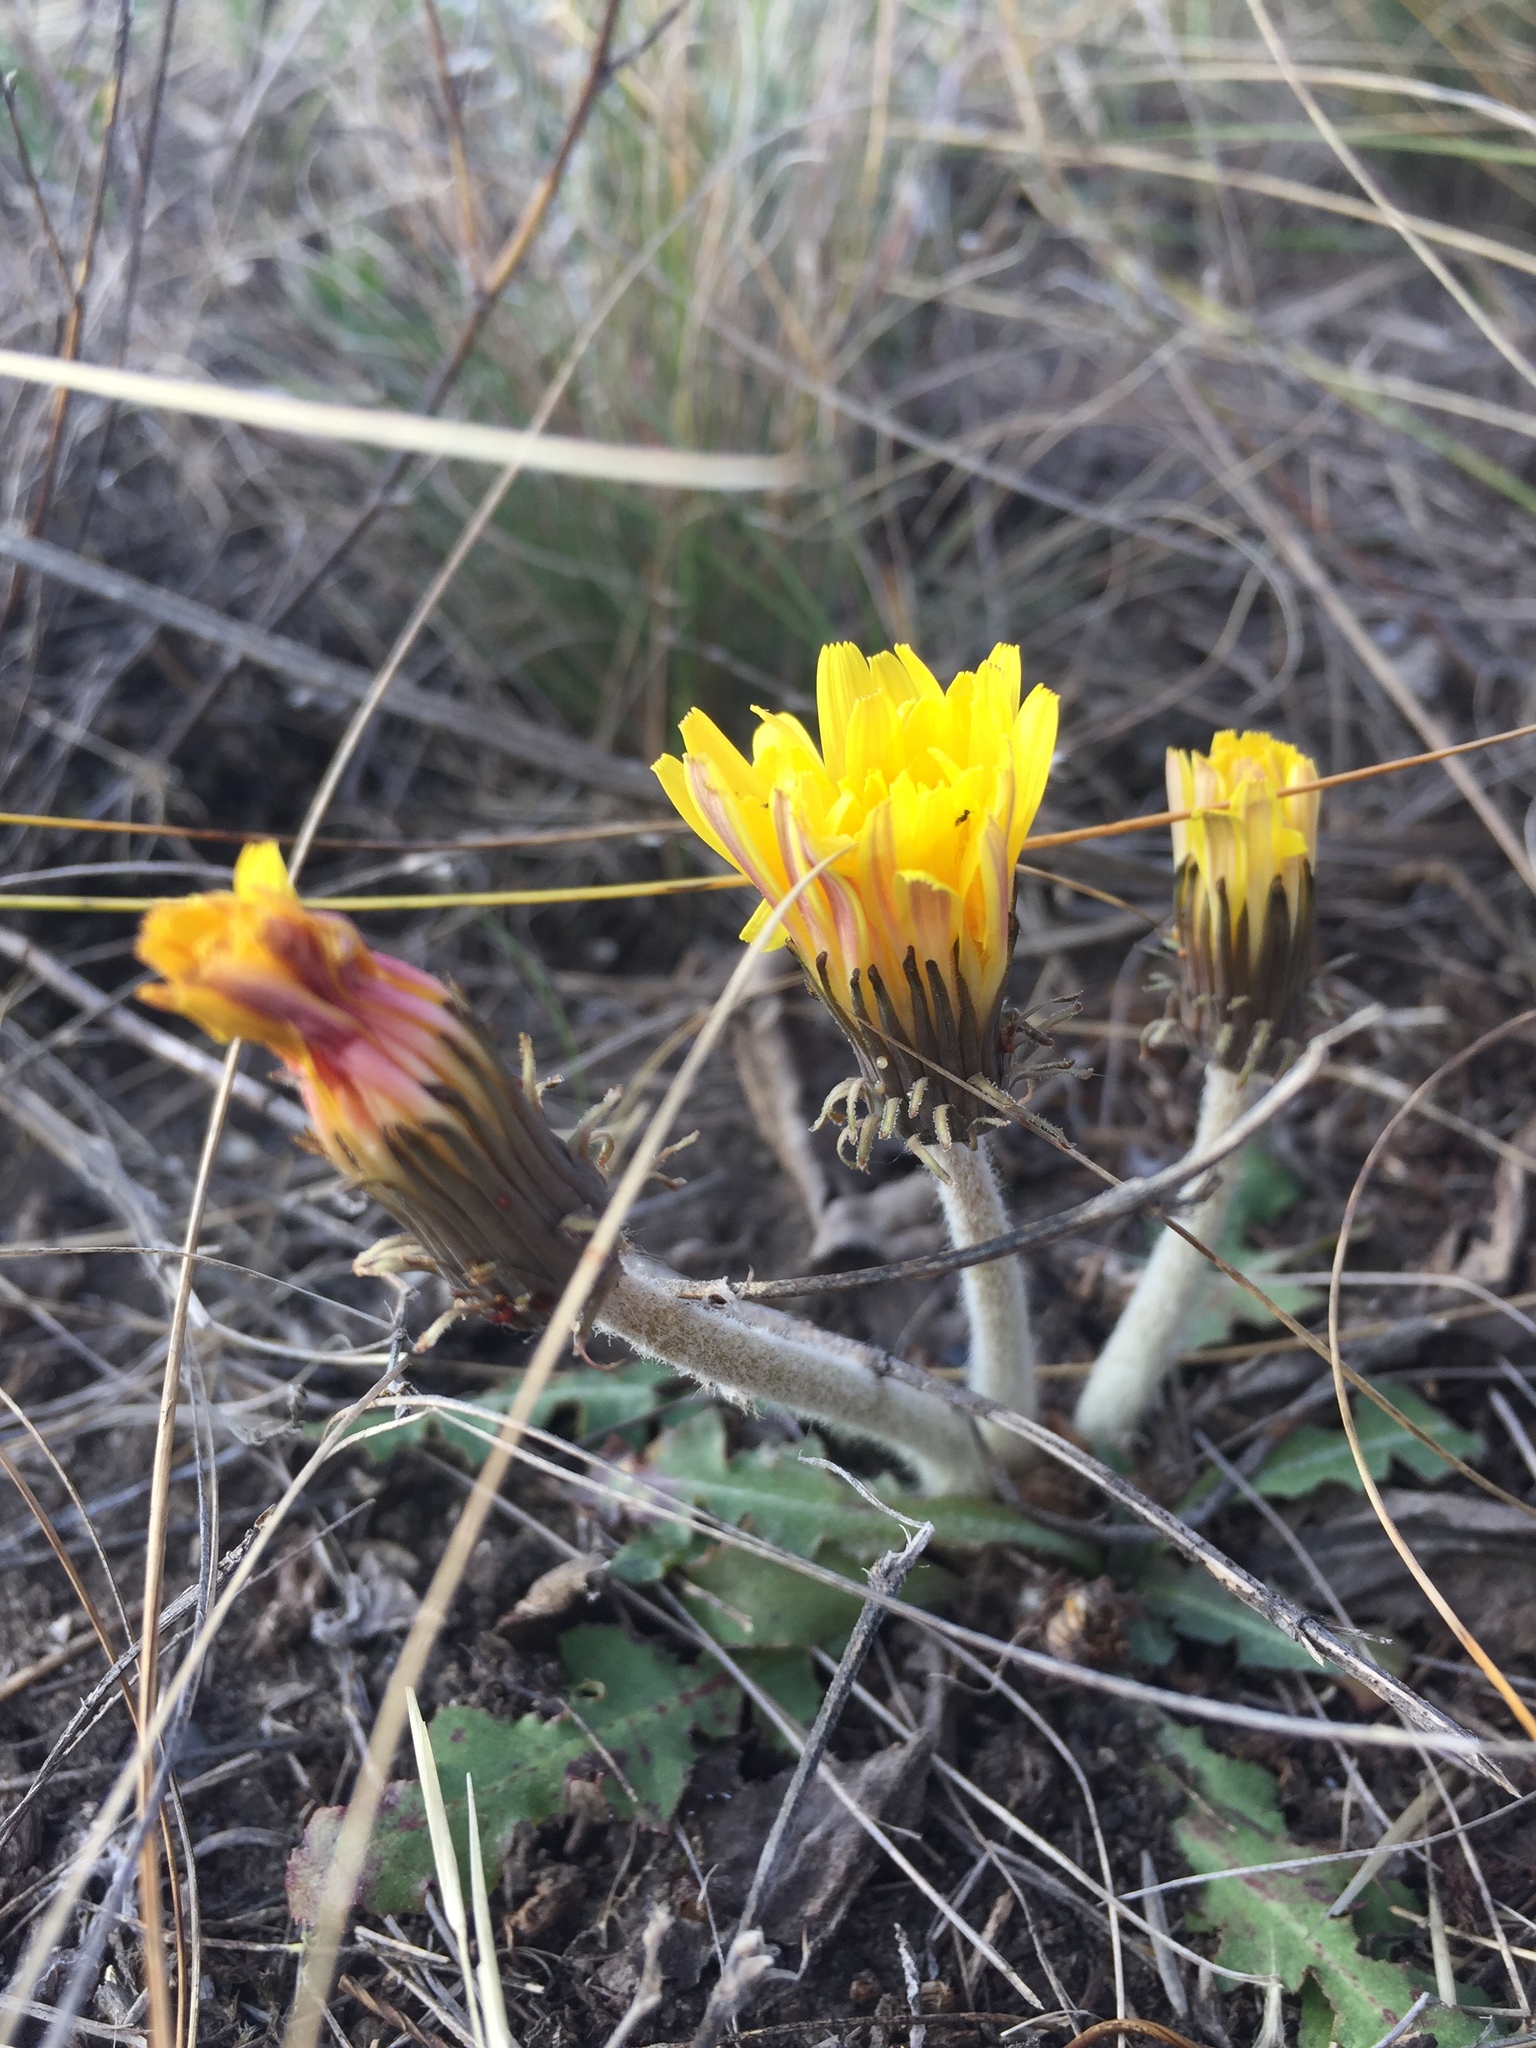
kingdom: Plantae
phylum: Tracheophyta
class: Magnoliopsida
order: Asterales
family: Asteraceae
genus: Taraxacum
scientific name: Taraxacum serotinum
